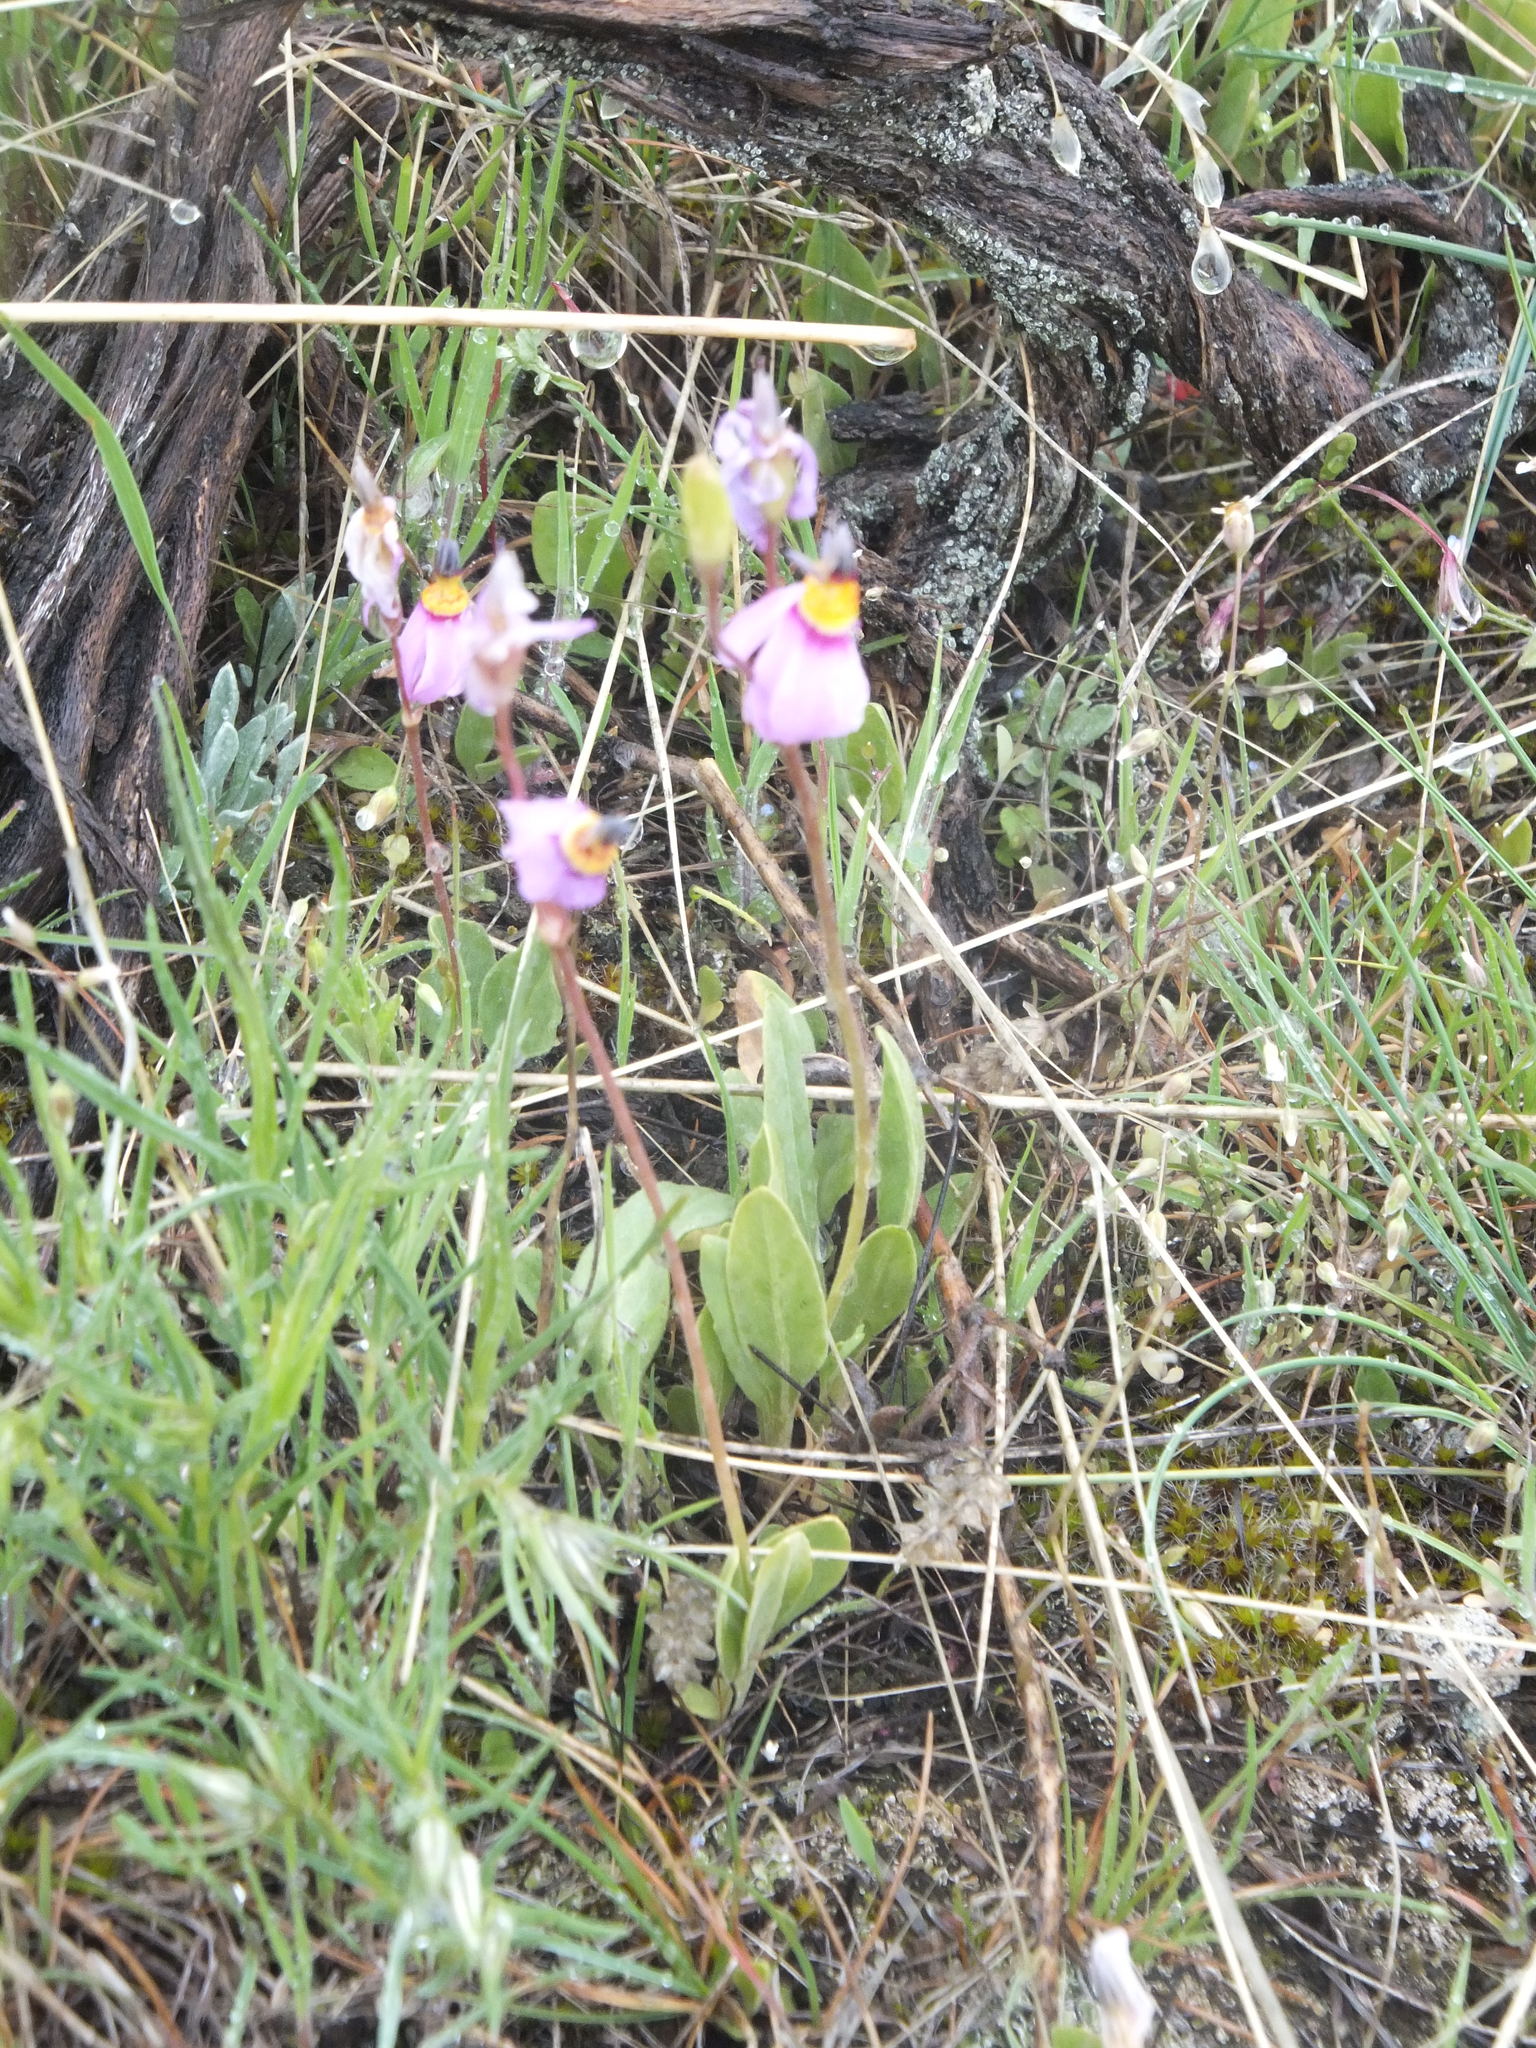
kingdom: Plantae
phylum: Tracheophyta
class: Magnoliopsida
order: Ericales
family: Primulaceae
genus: Dodecatheon
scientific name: Dodecatheon pulchellum
